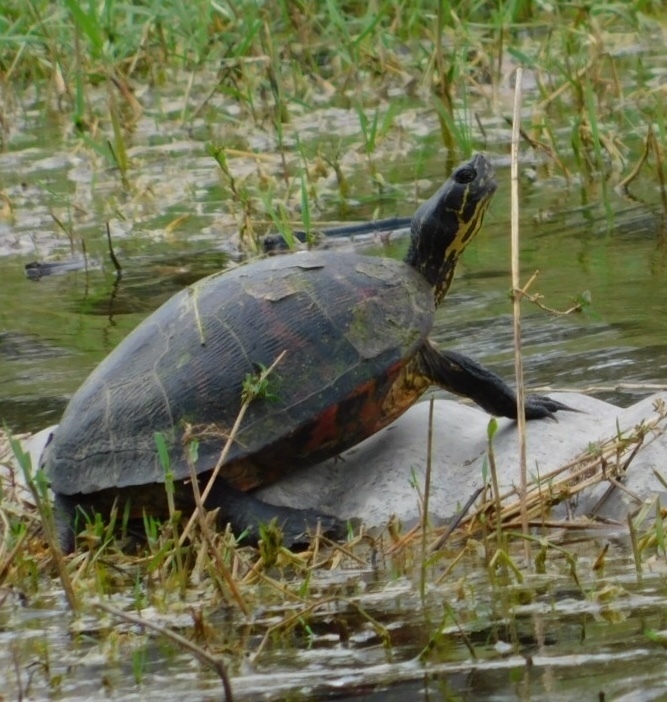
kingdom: Animalia
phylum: Chordata
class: Testudines
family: Emydidae
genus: Pseudemys
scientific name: Pseudemys nelsoni
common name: Florida red-bellied turtle
